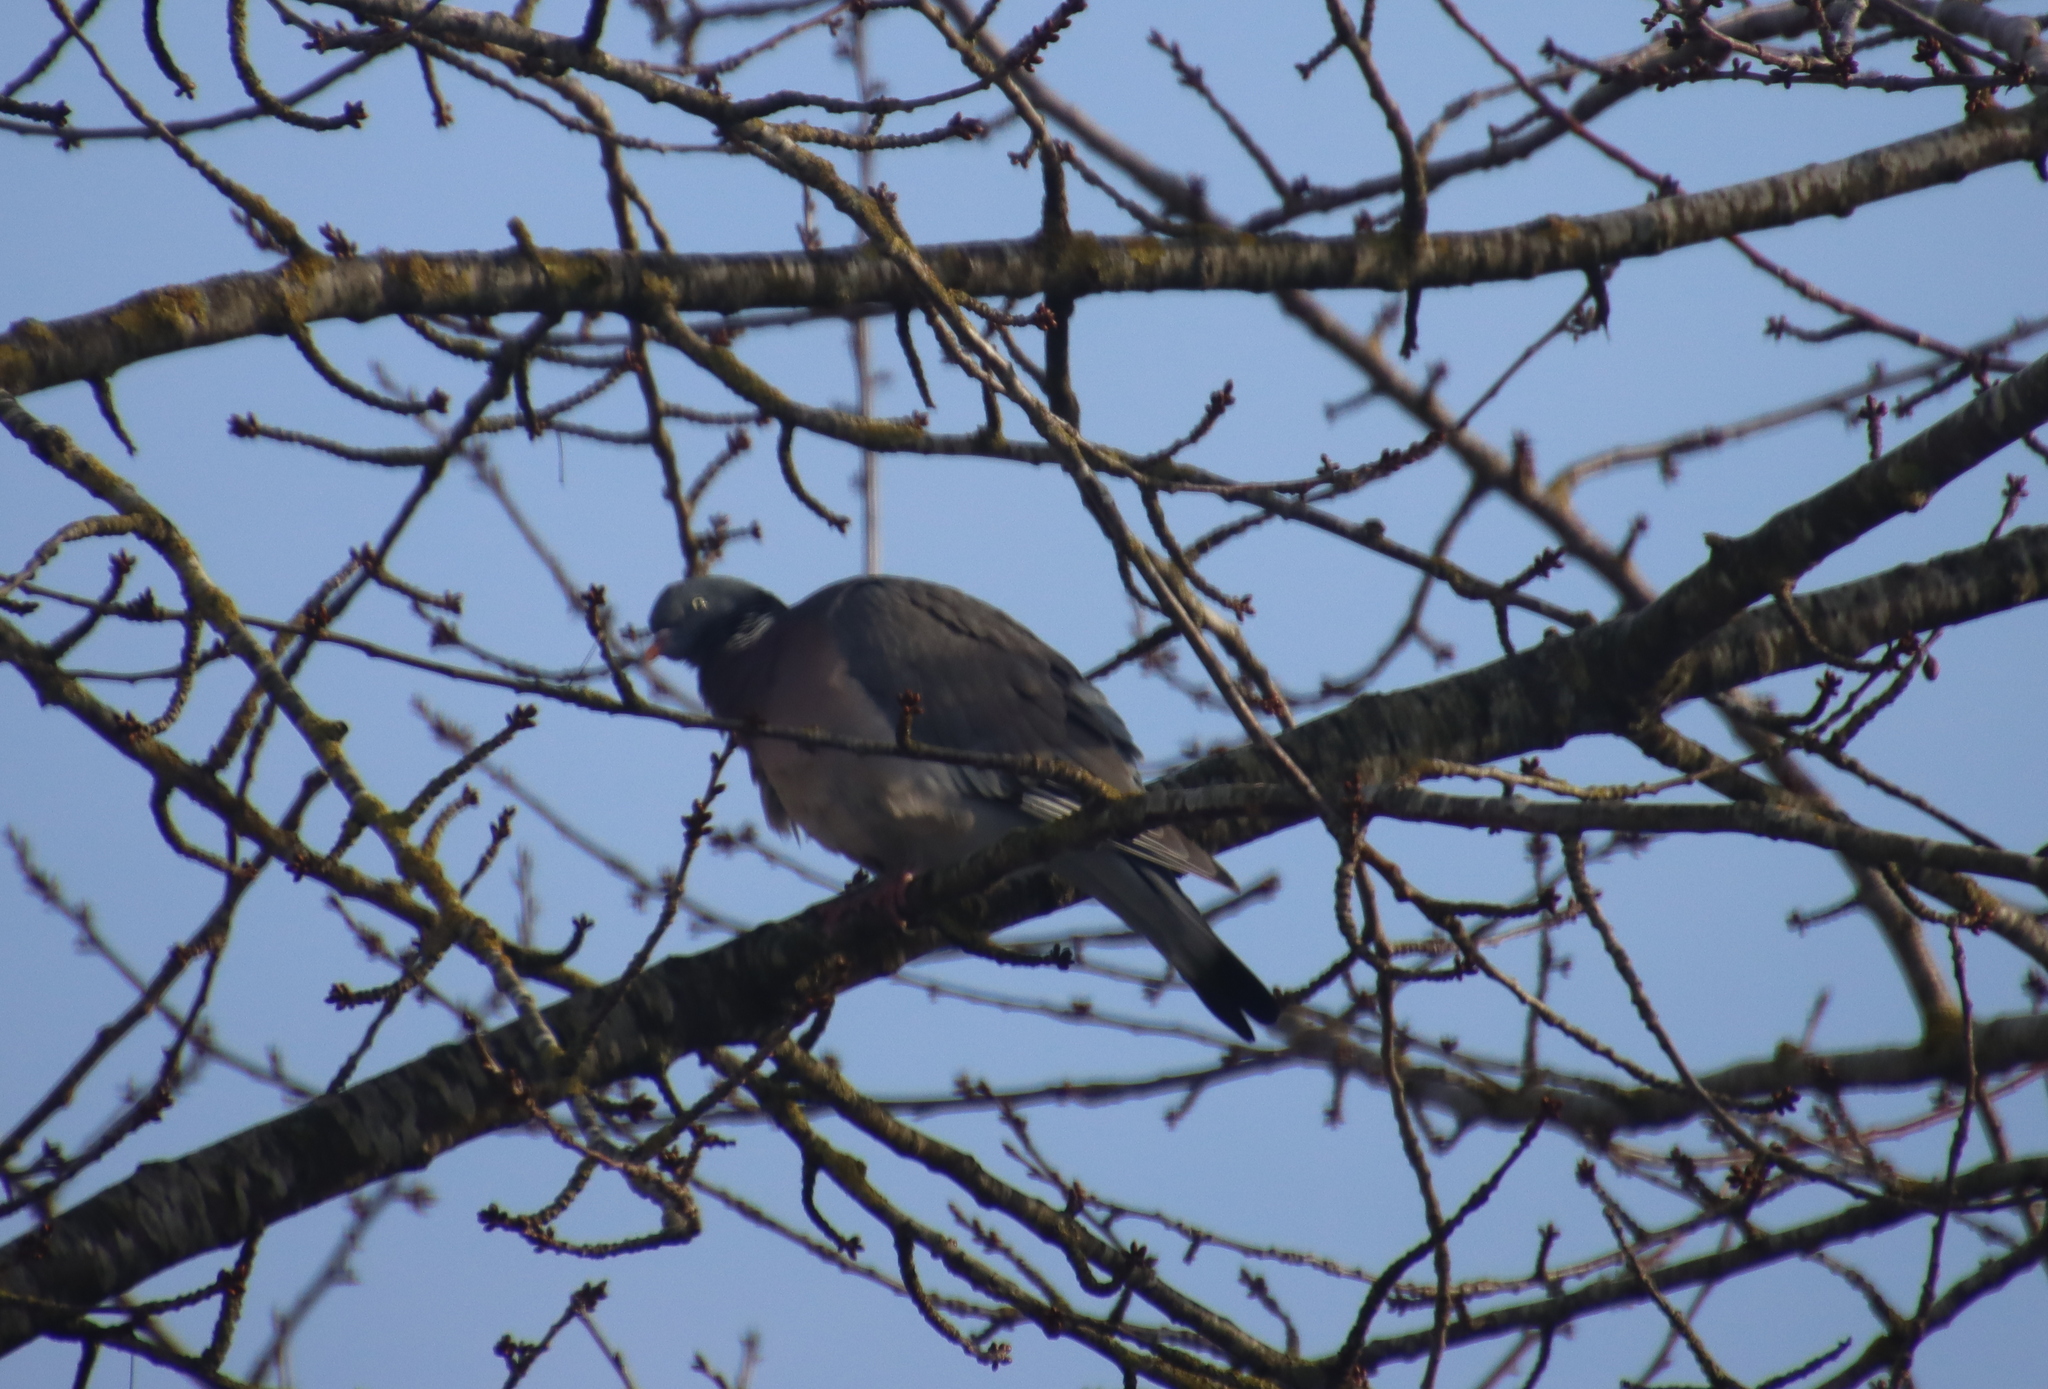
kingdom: Animalia
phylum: Chordata
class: Aves
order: Columbiformes
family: Columbidae
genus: Columba
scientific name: Columba palumbus
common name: Common wood pigeon
